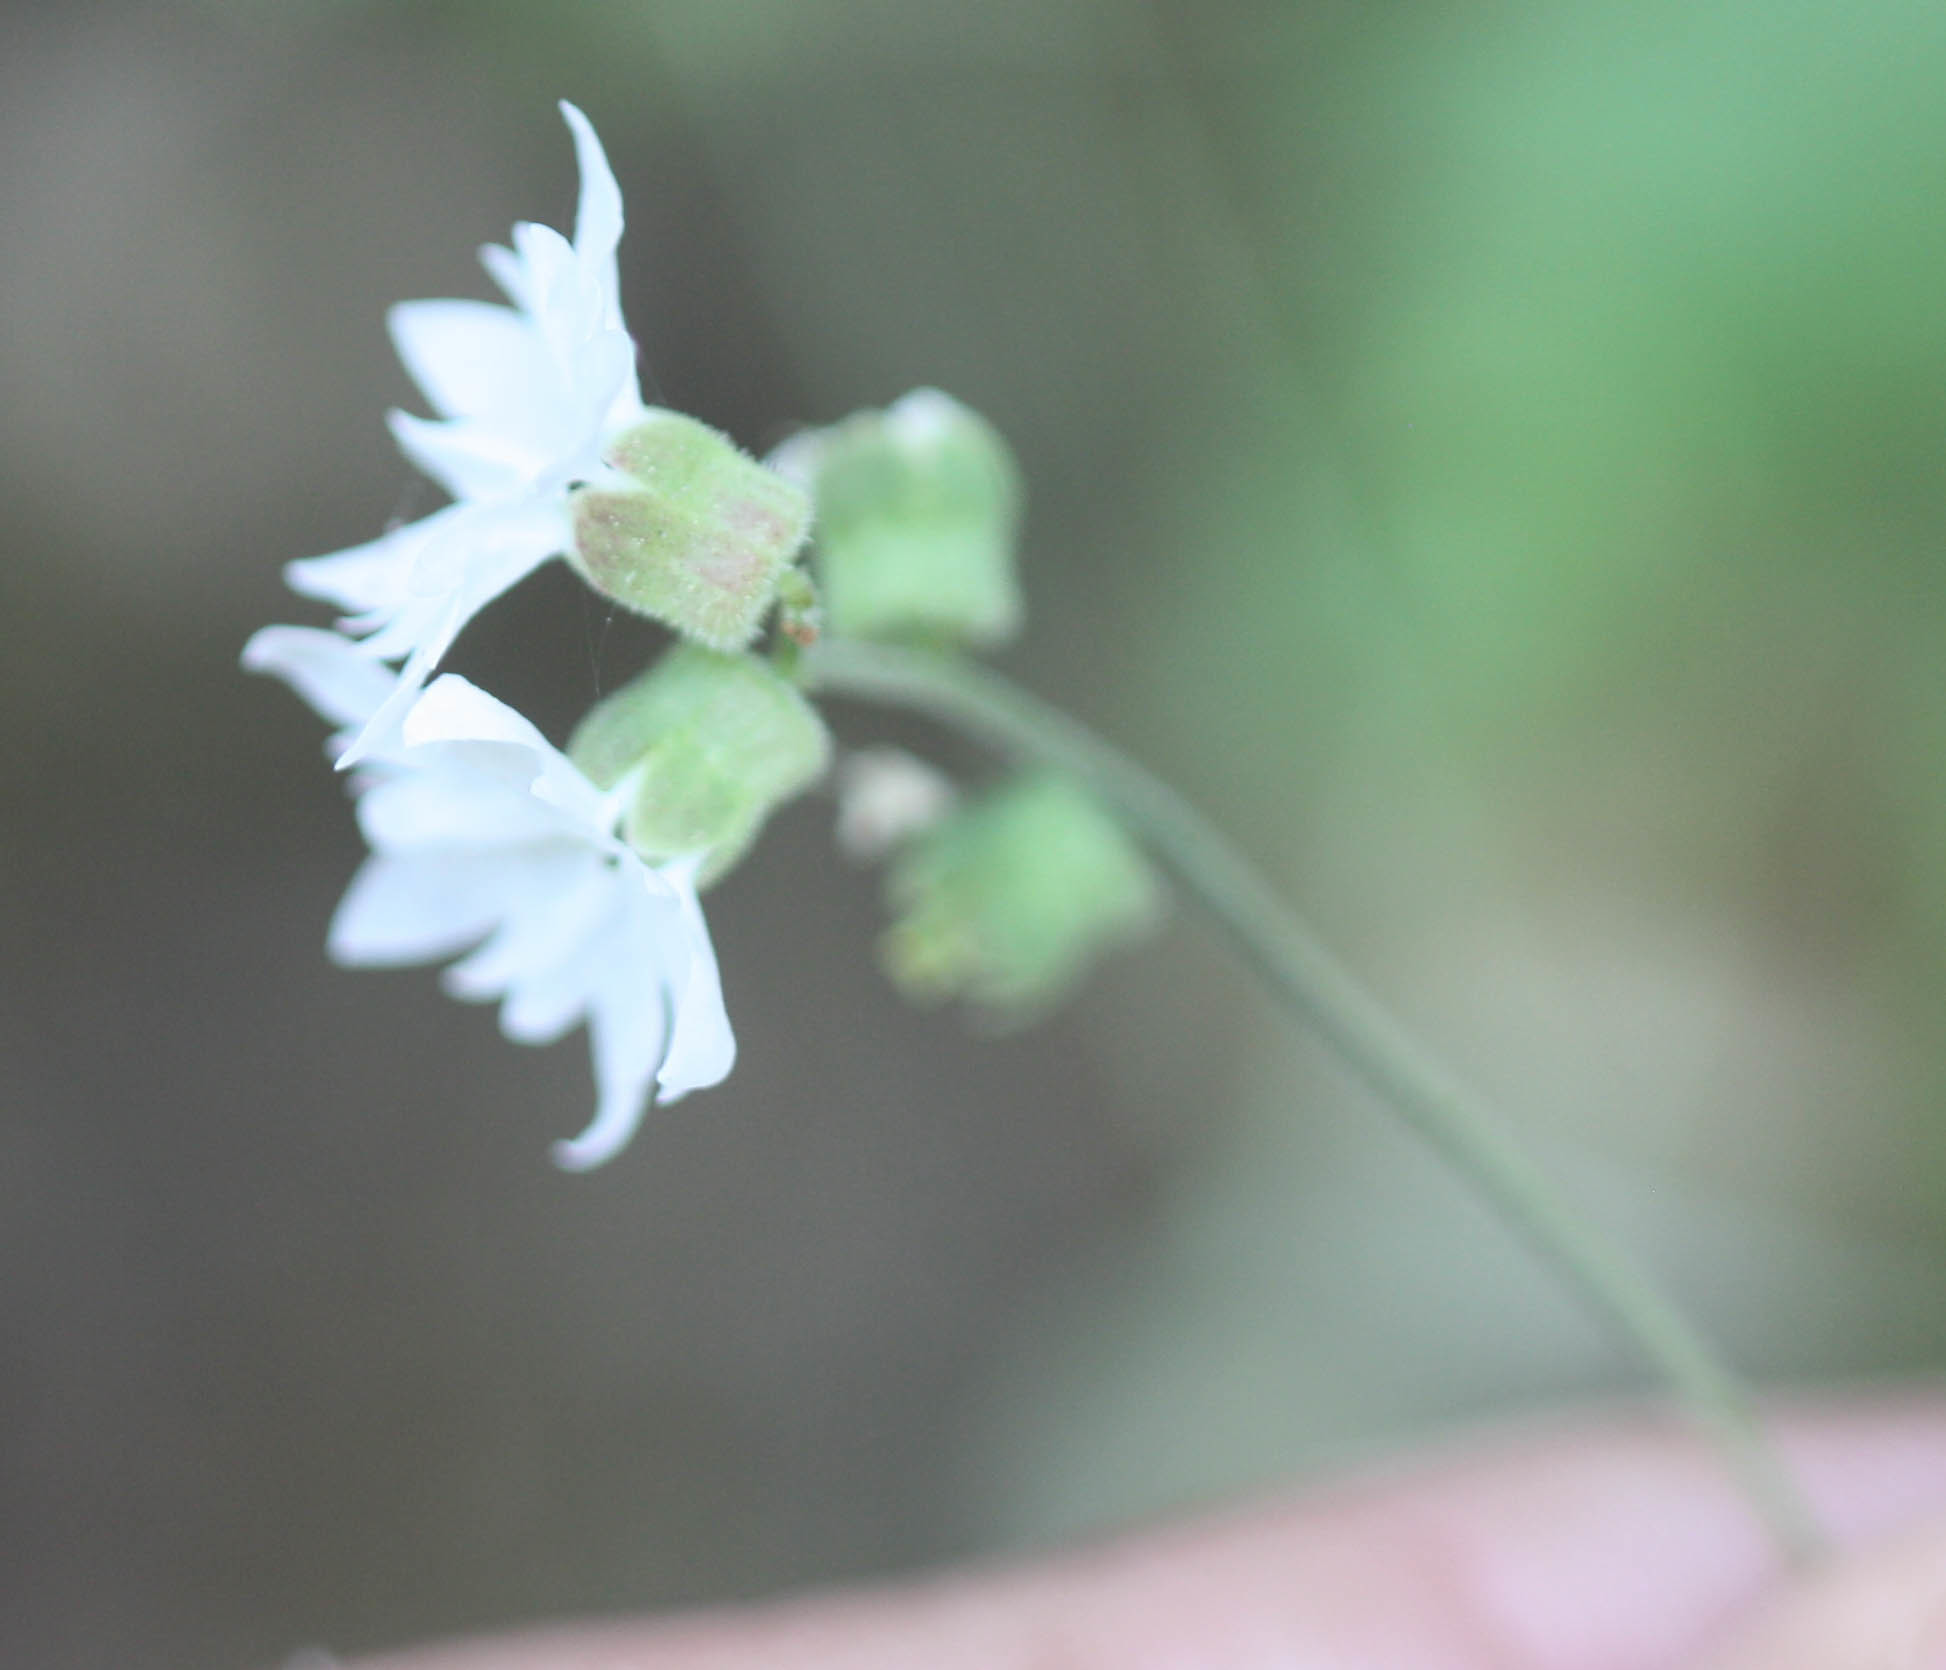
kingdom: Plantae
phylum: Tracheophyta
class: Magnoliopsida
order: Saxifragales
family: Saxifragaceae
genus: Lithophragma
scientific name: Lithophragma heterophyllum
